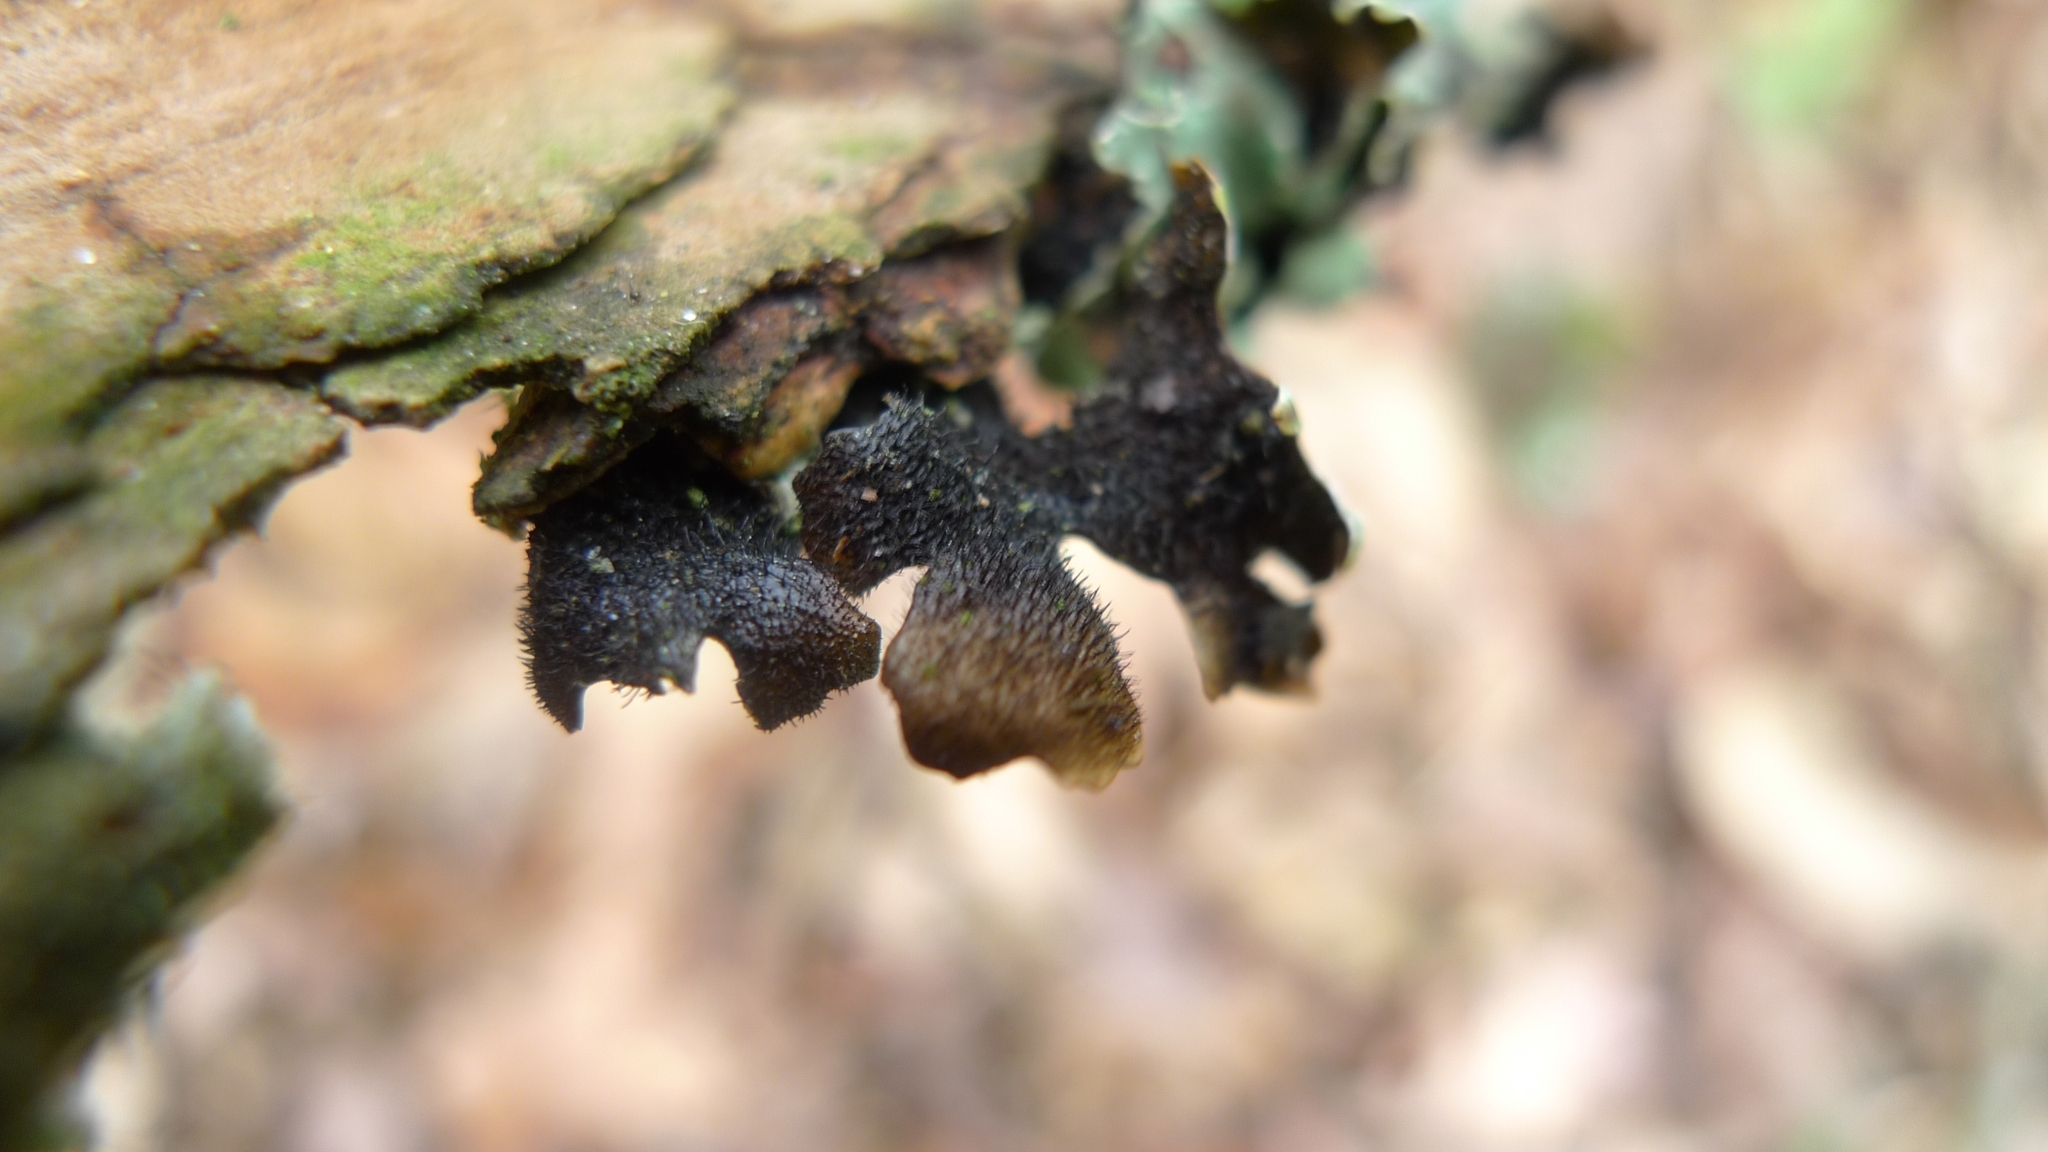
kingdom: Fungi
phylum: Ascomycota
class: Lecanoromycetes
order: Lecanorales
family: Parmeliaceae
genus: Parmelia
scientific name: Parmelia sulcata
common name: Netted shield lichen
